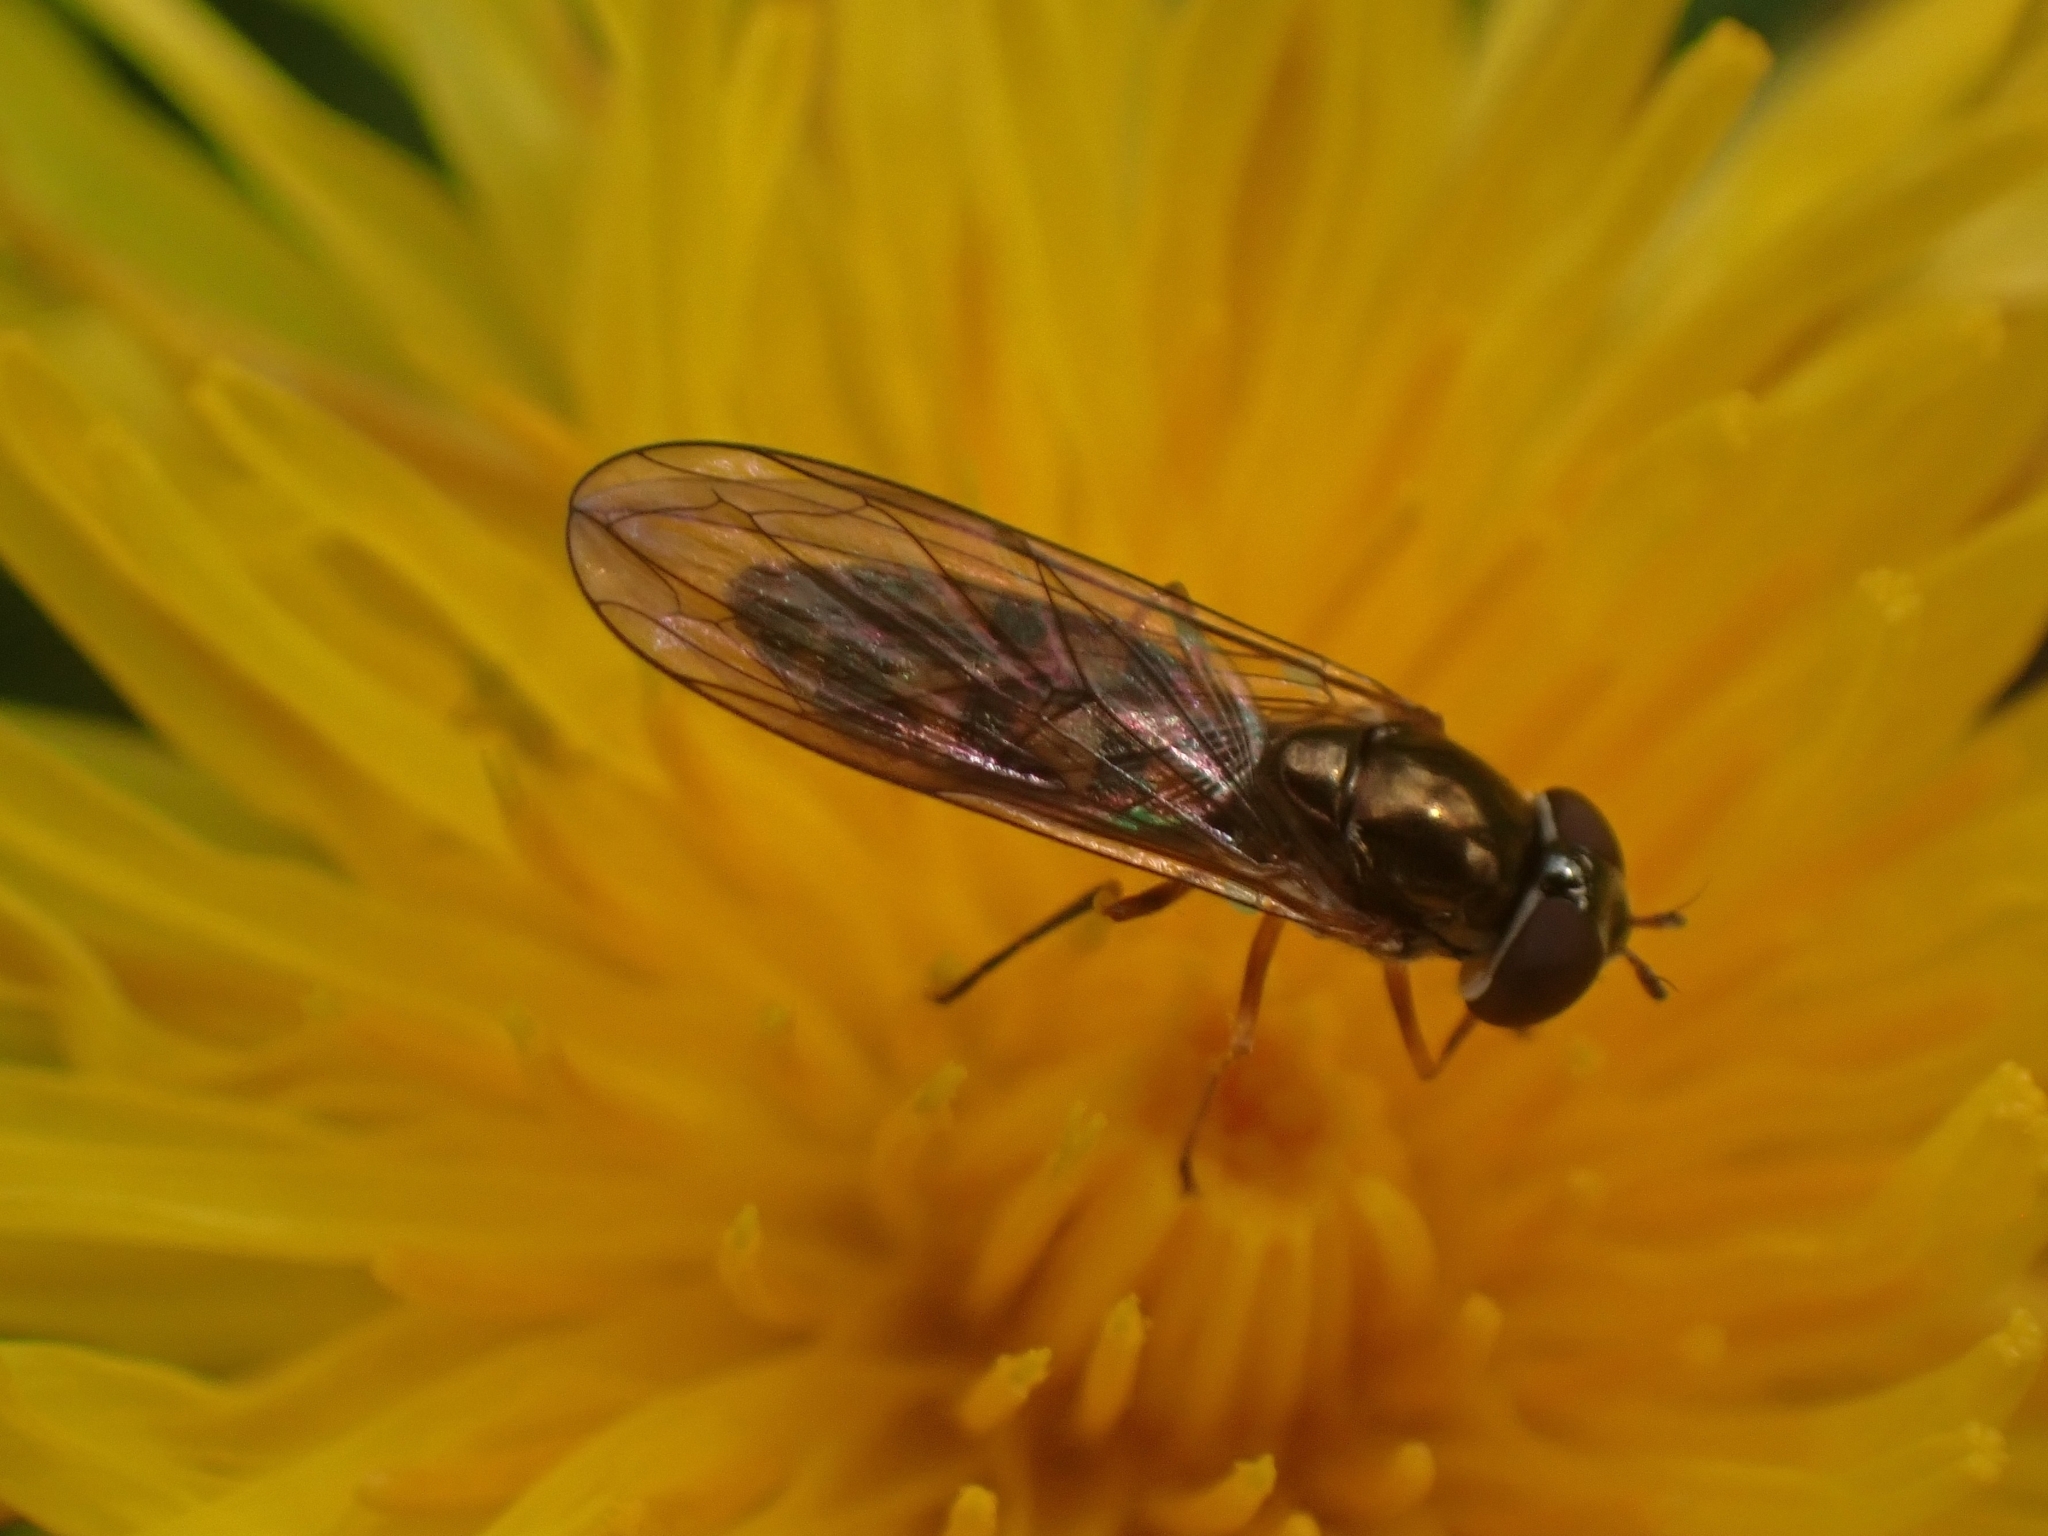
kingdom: Animalia
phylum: Arthropoda
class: Insecta
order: Diptera
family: Syrphidae
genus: Melanostoma
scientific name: Melanostoma scalare
